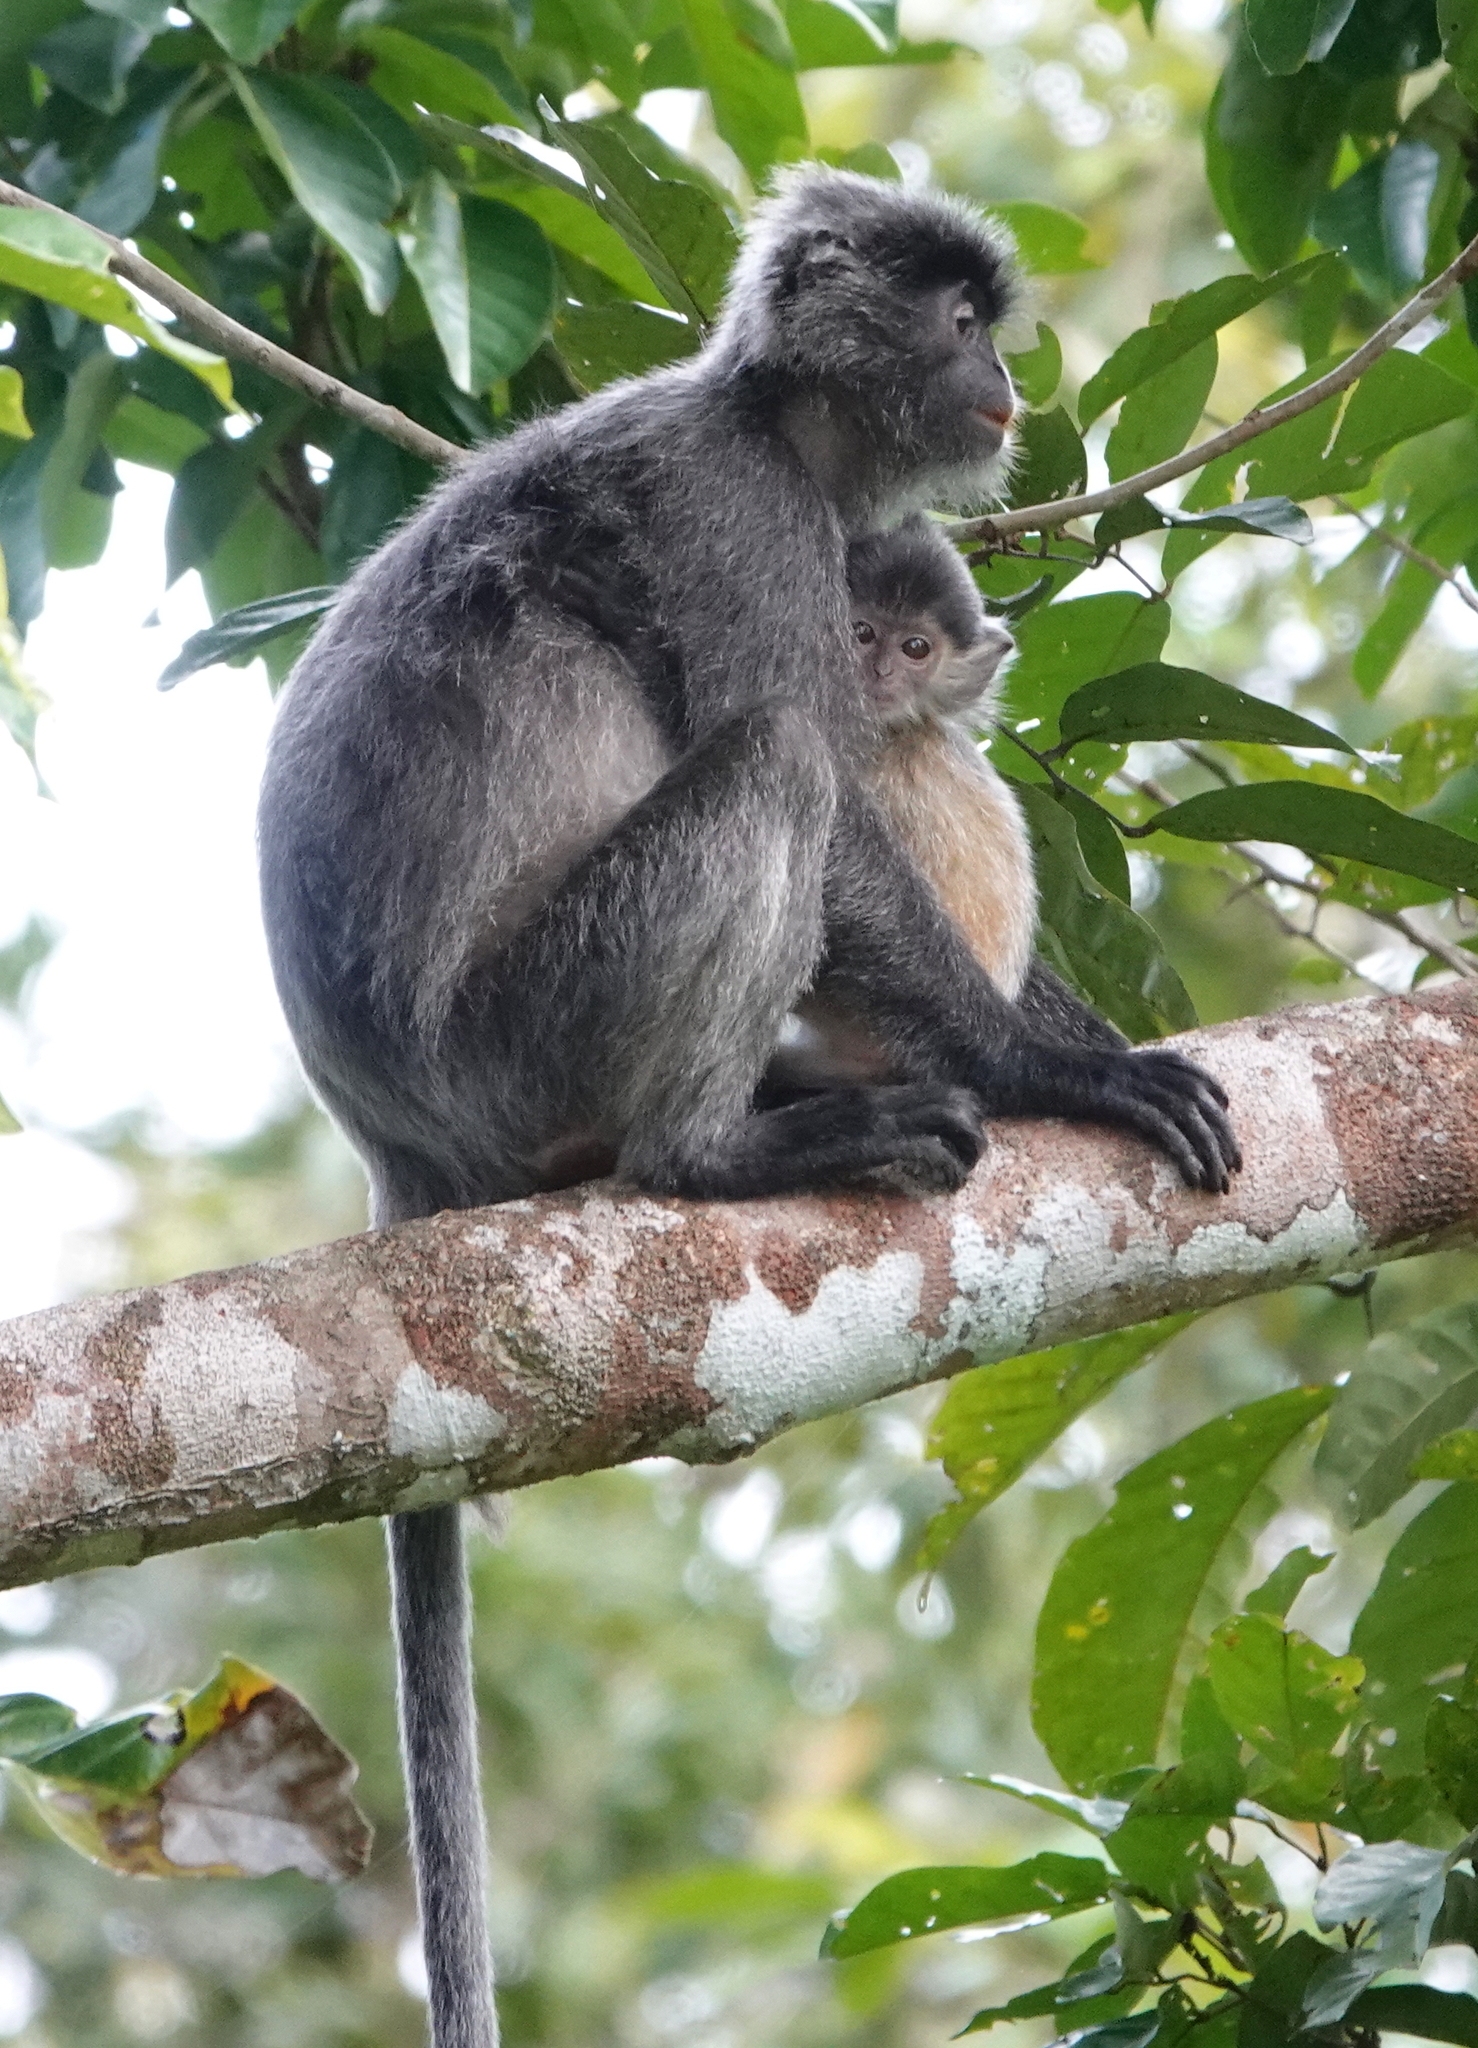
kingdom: Animalia
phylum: Chordata
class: Mammalia
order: Primates
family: Cercopithecidae
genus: Trachypithecus
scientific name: Trachypithecus cristatus
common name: Silvery lutung
